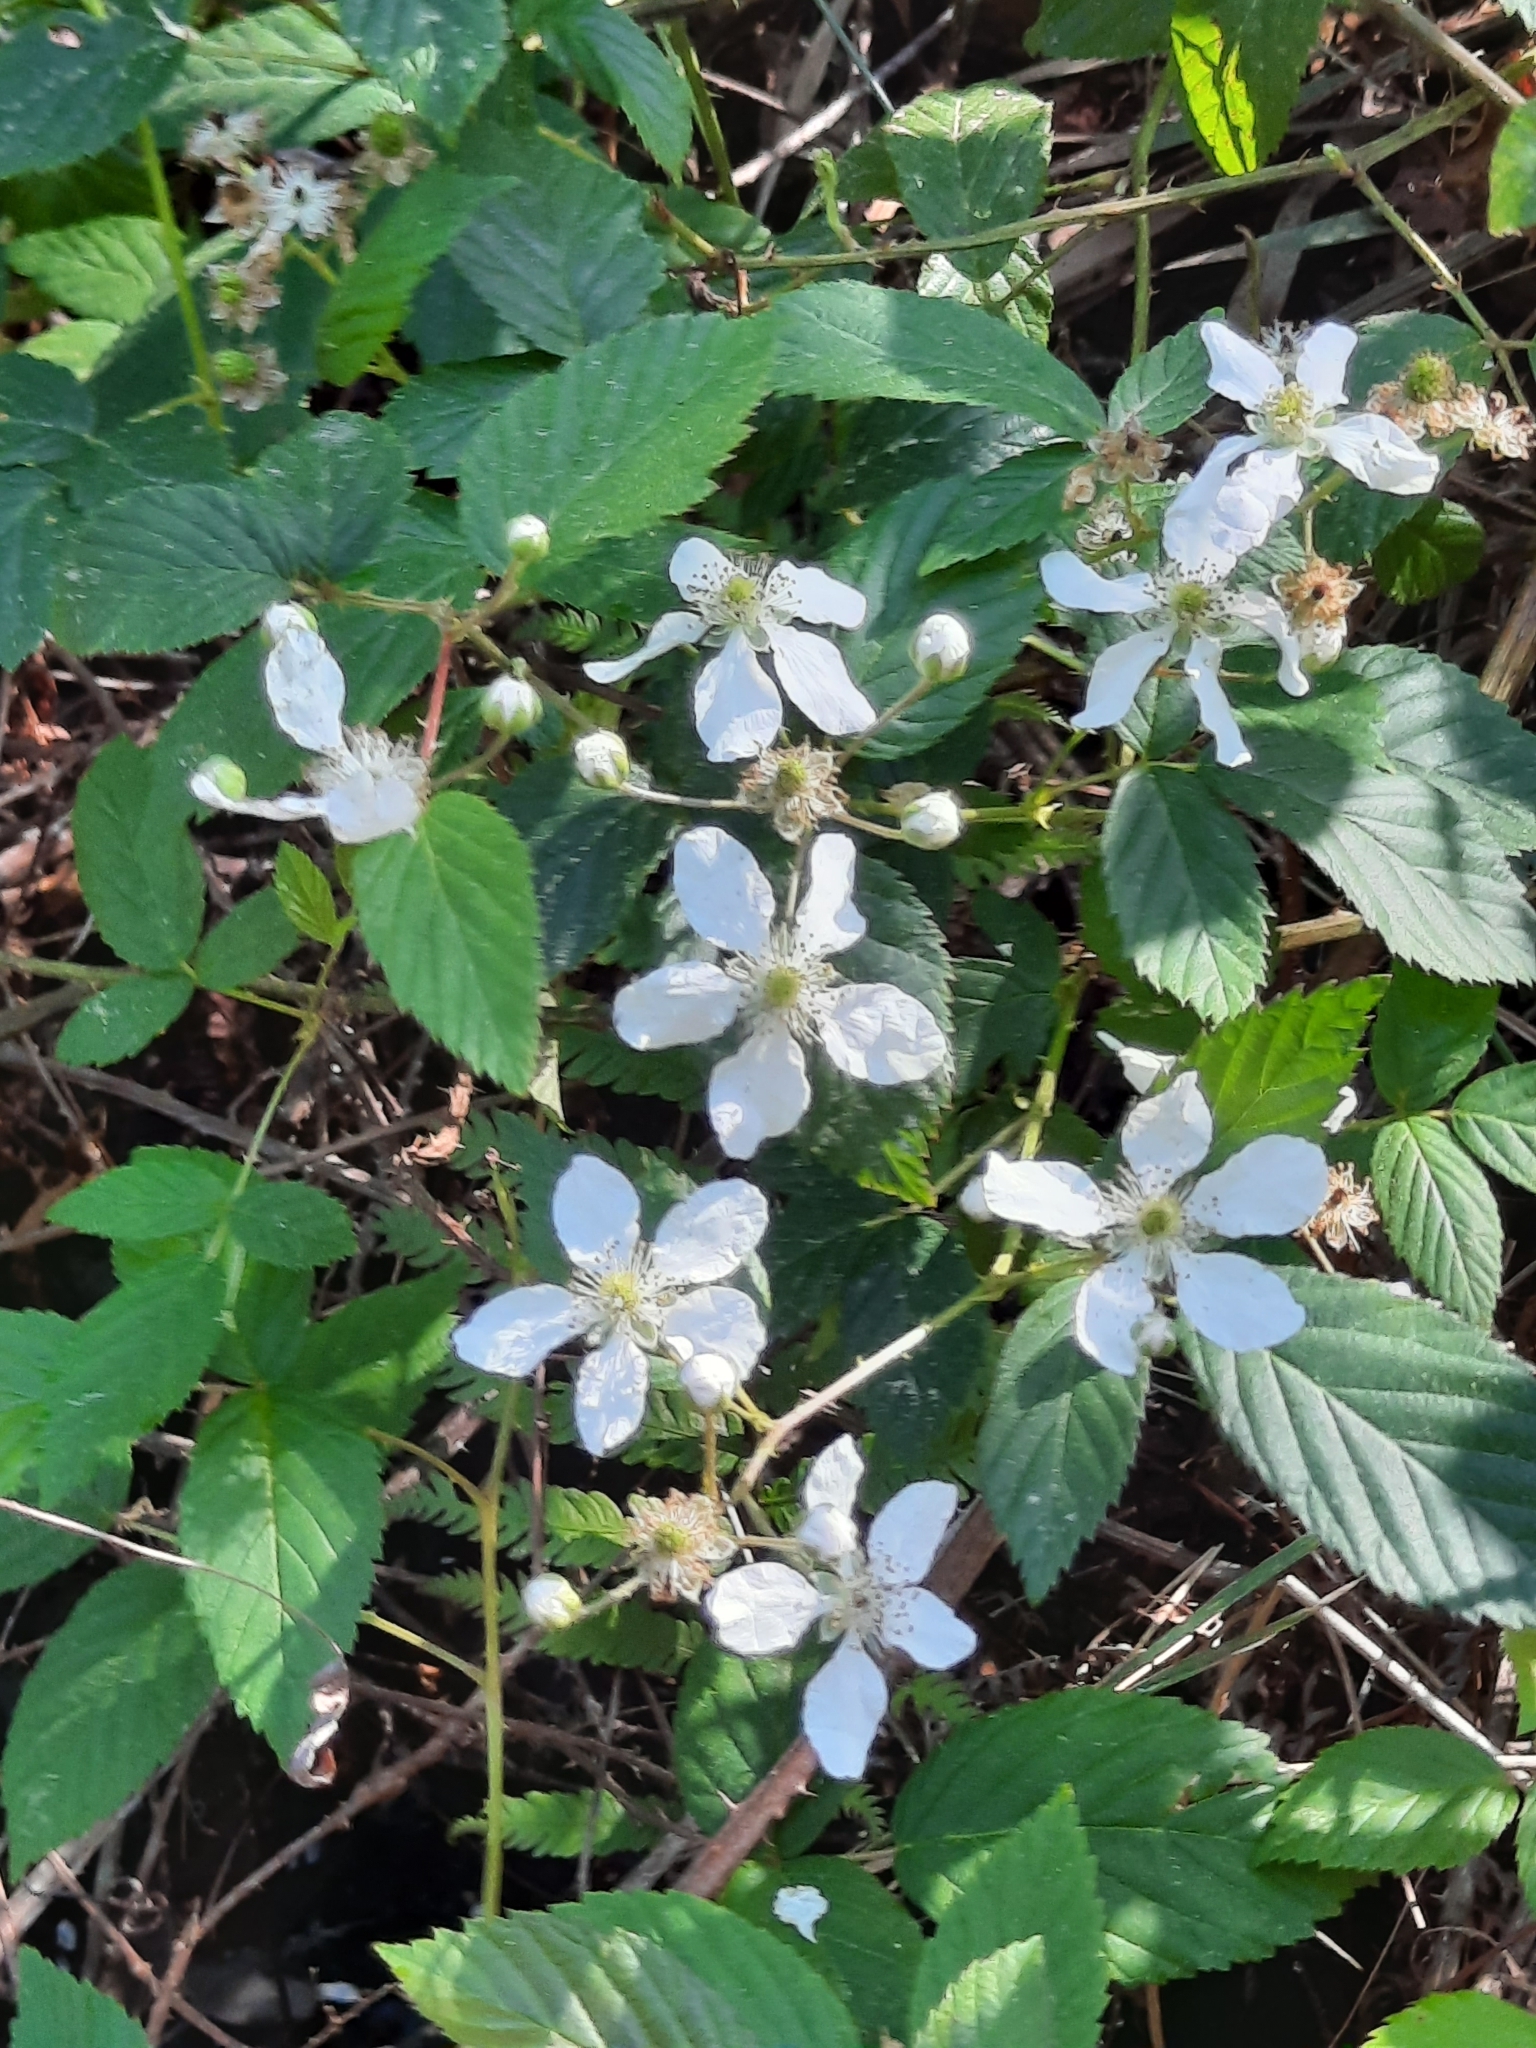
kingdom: Plantae
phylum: Tracheophyta
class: Magnoliopsida
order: Rosales
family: Rosaceae
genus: Rubus
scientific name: Rubus pensilvanicus
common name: Pennsylvania blackberry
